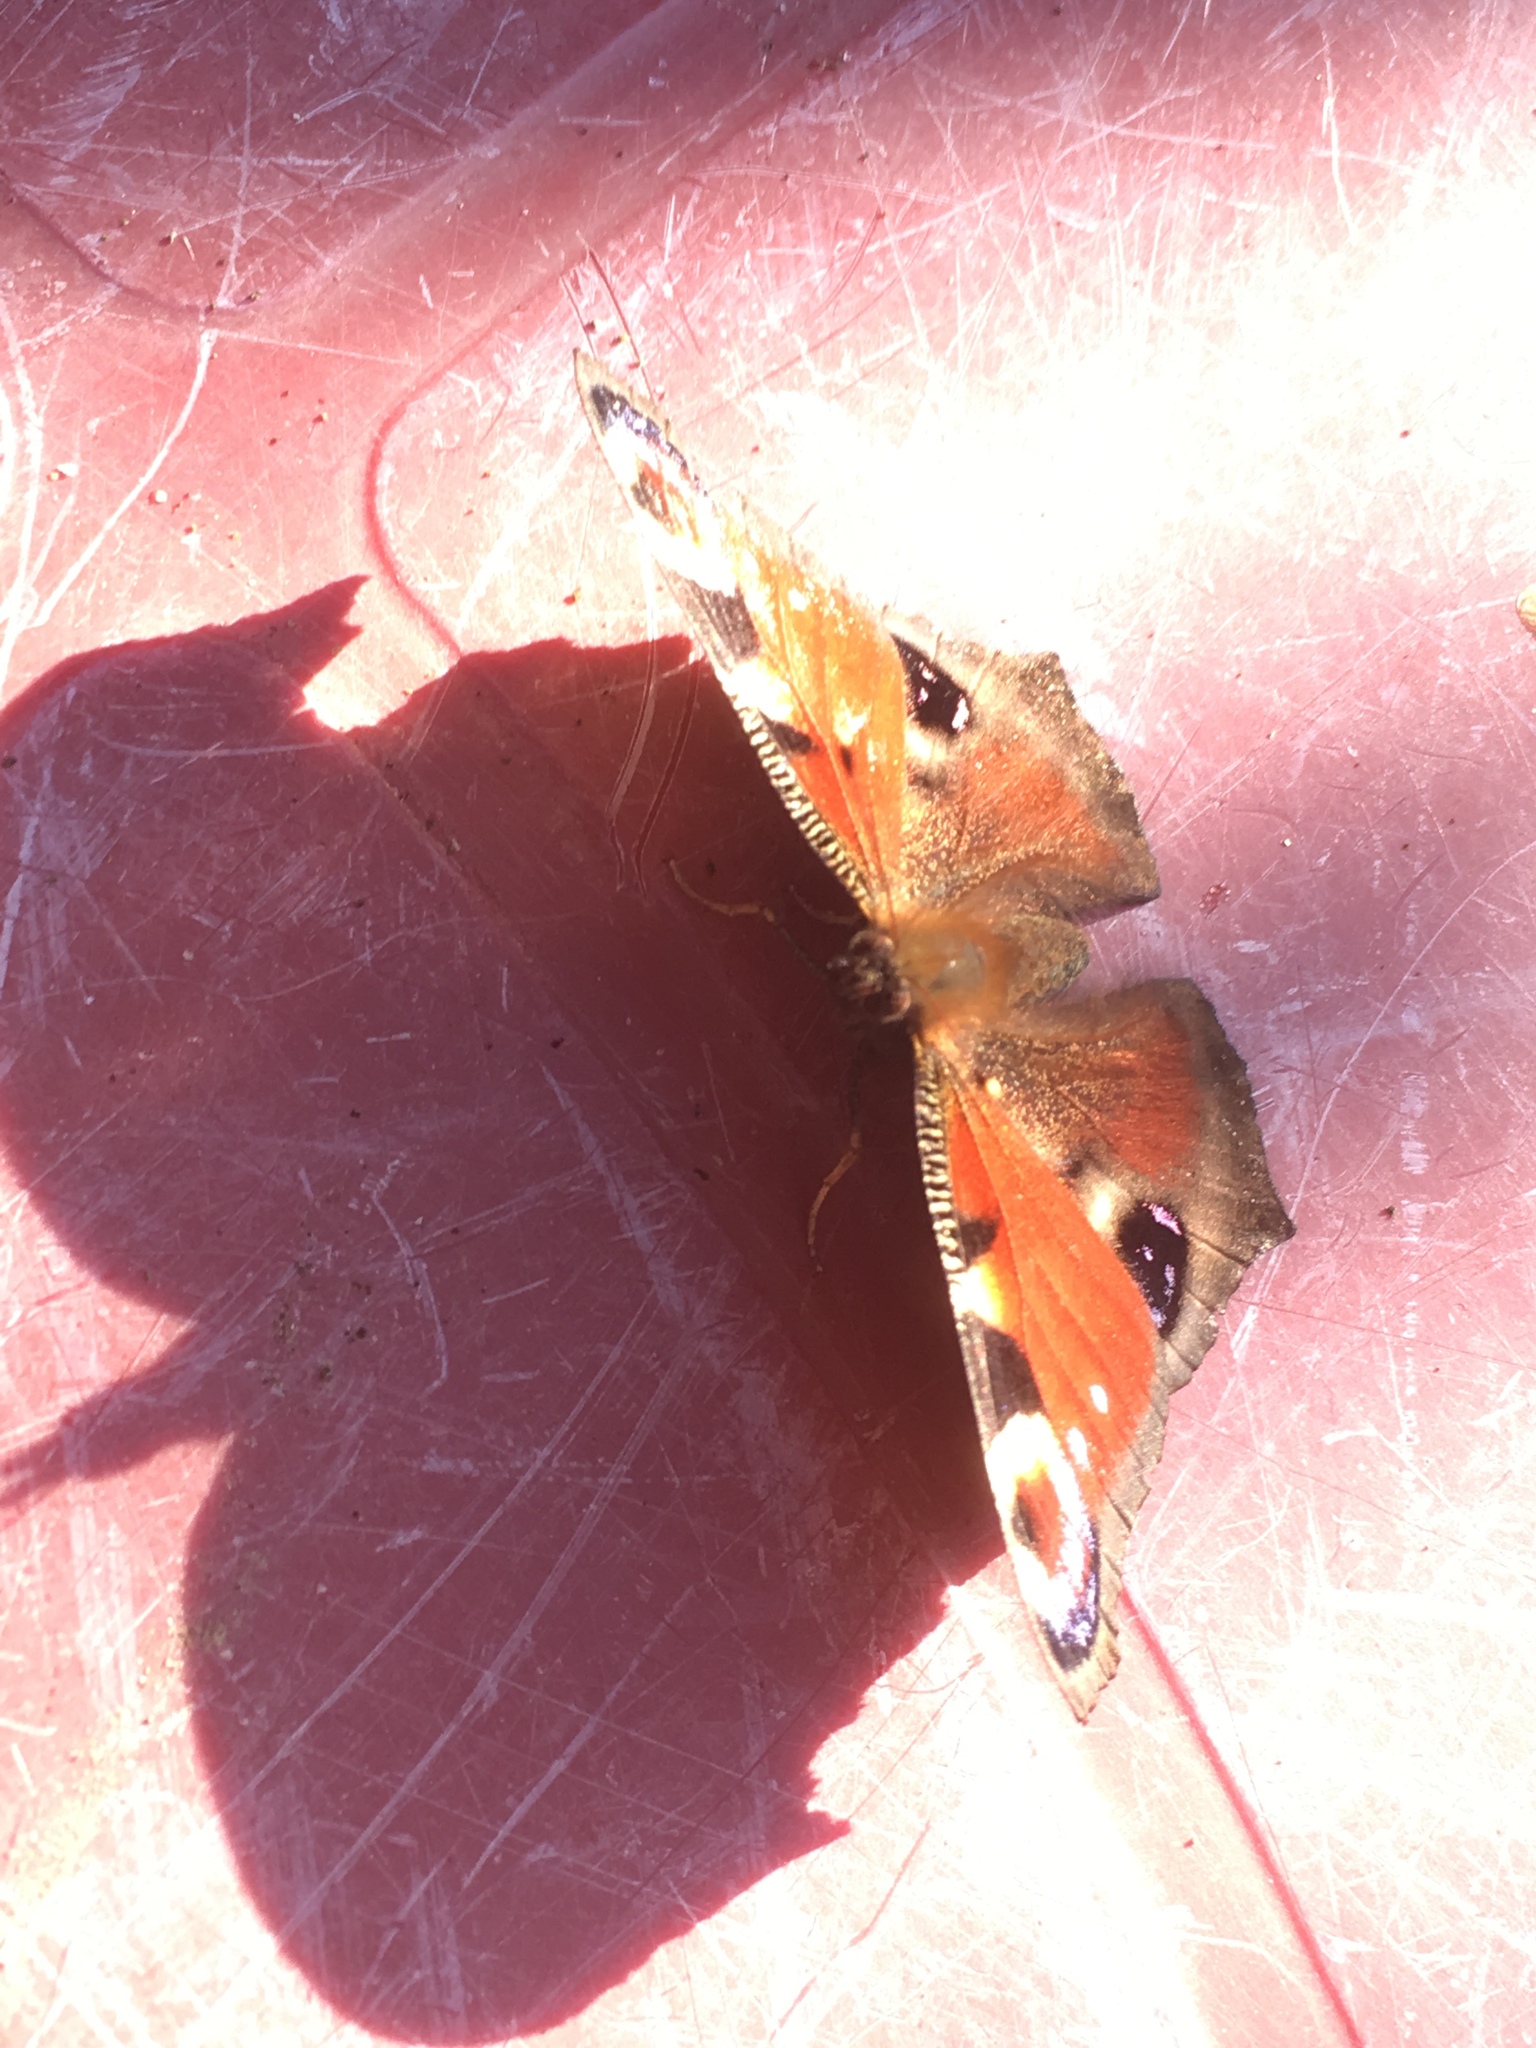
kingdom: Animalia
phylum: Arthropoda
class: Insecta
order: Lepidoptera
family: Nymphalidae
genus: Aglais
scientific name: Aglais io
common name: Peacock
